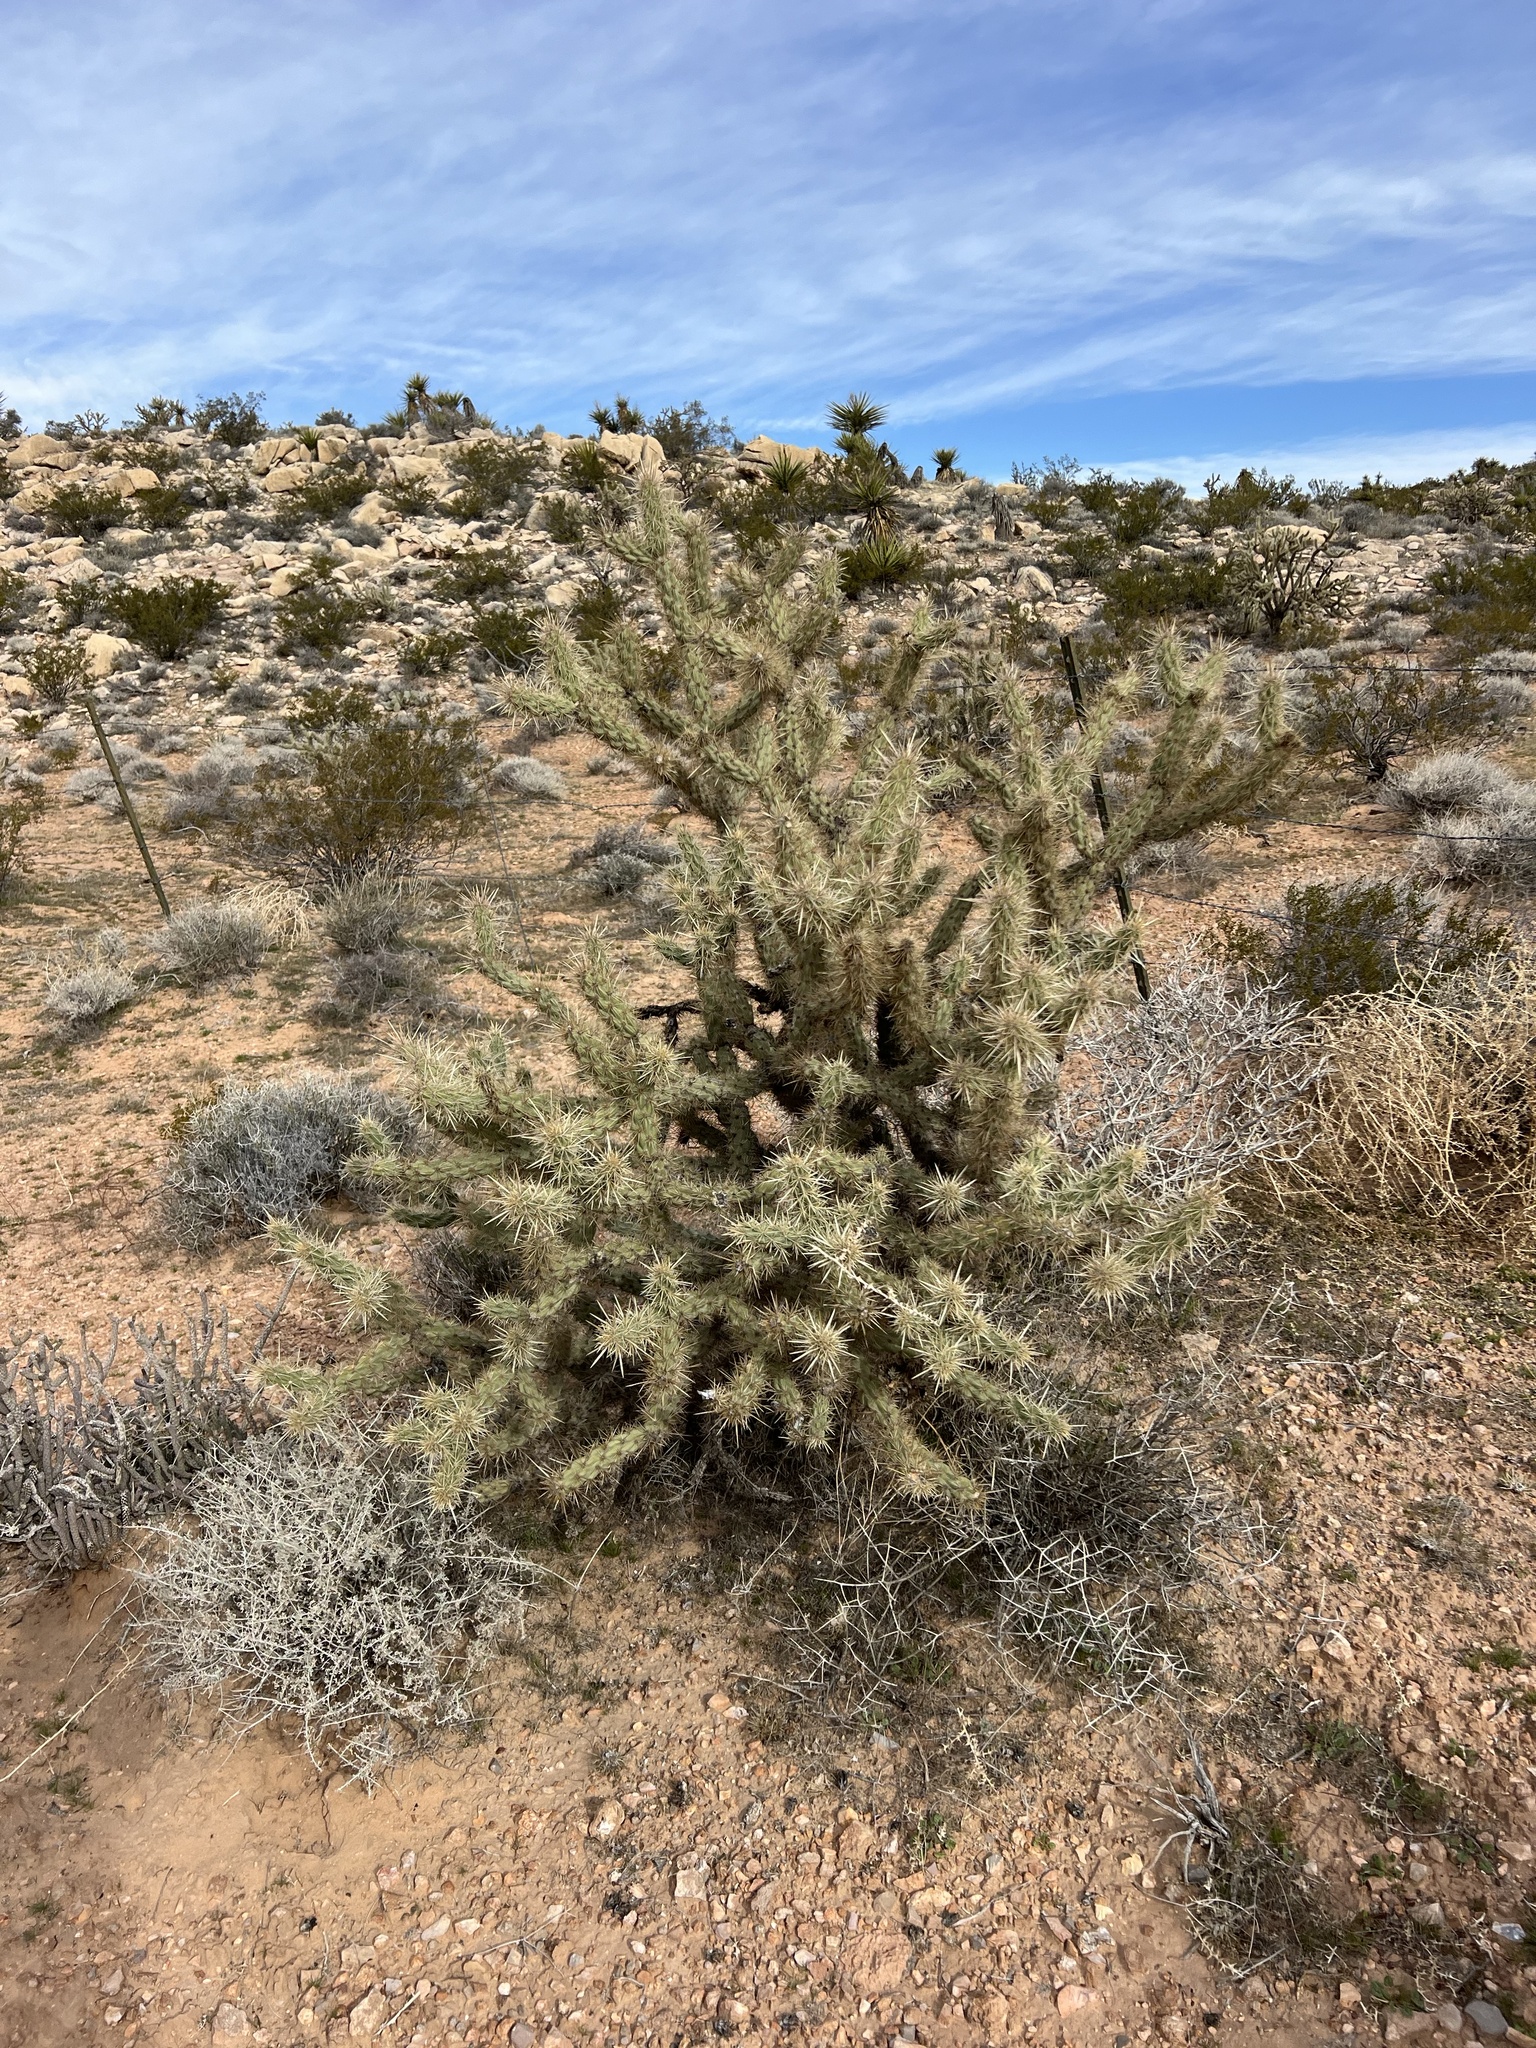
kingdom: Plantae
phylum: Tracheophyta
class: Magnoliopsida
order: Caryophyllales
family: Cactaceae
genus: Cylindropuntia
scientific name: Cylindropuntia acanthocarpa
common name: Buckhorn cholla
